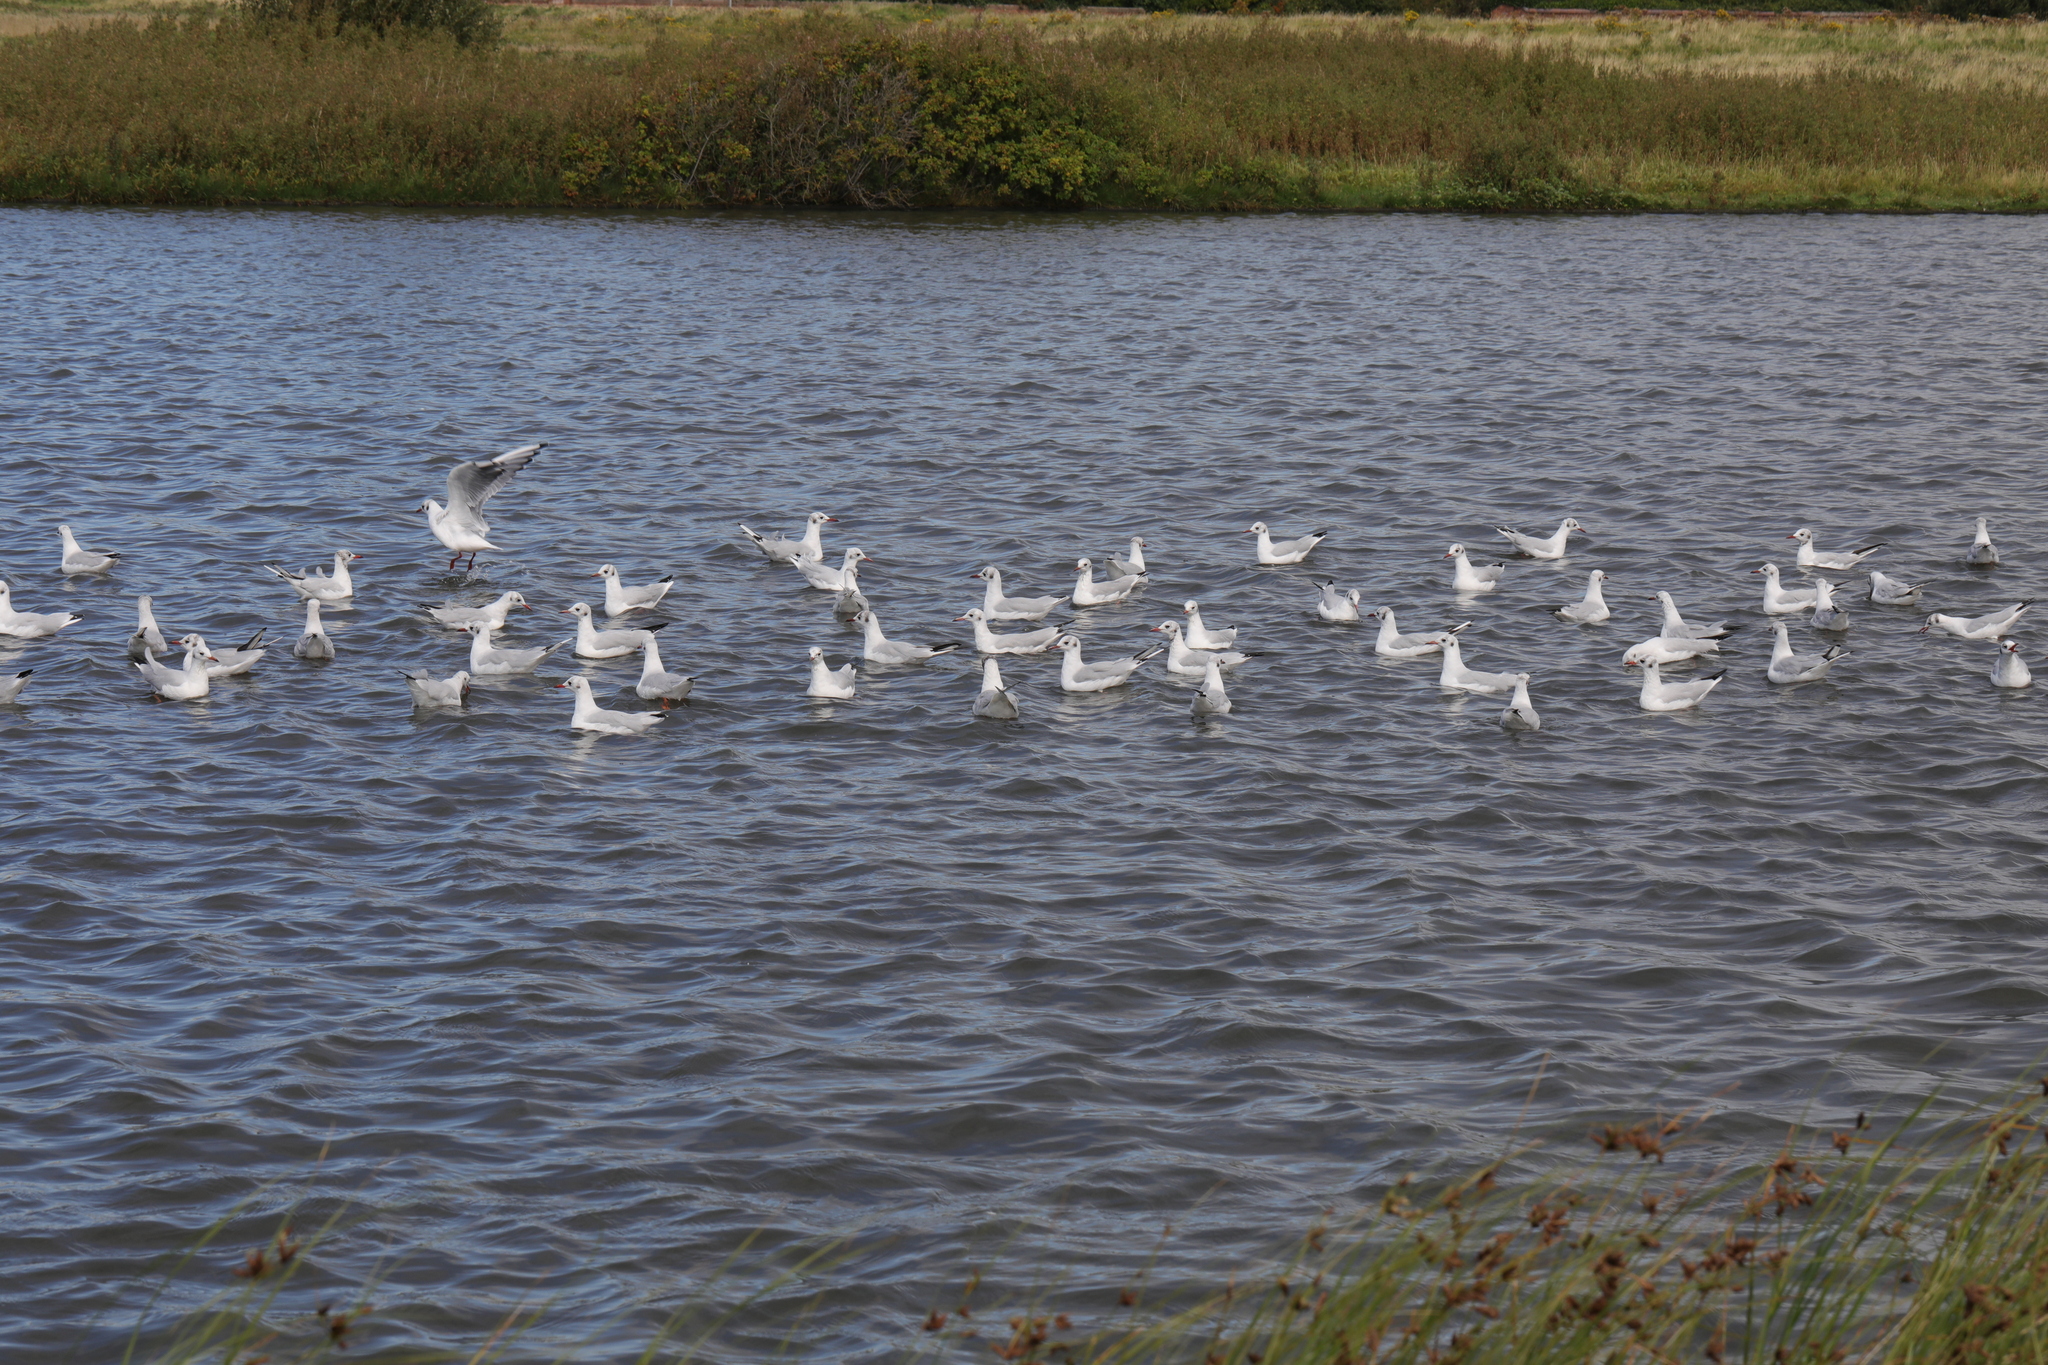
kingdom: Animalia
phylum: Chordata
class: Aves
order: Charadriiformes
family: Laridae
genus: Chroicocephalus
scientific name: Chroicocephalus ridibundus
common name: Black-headed gull
